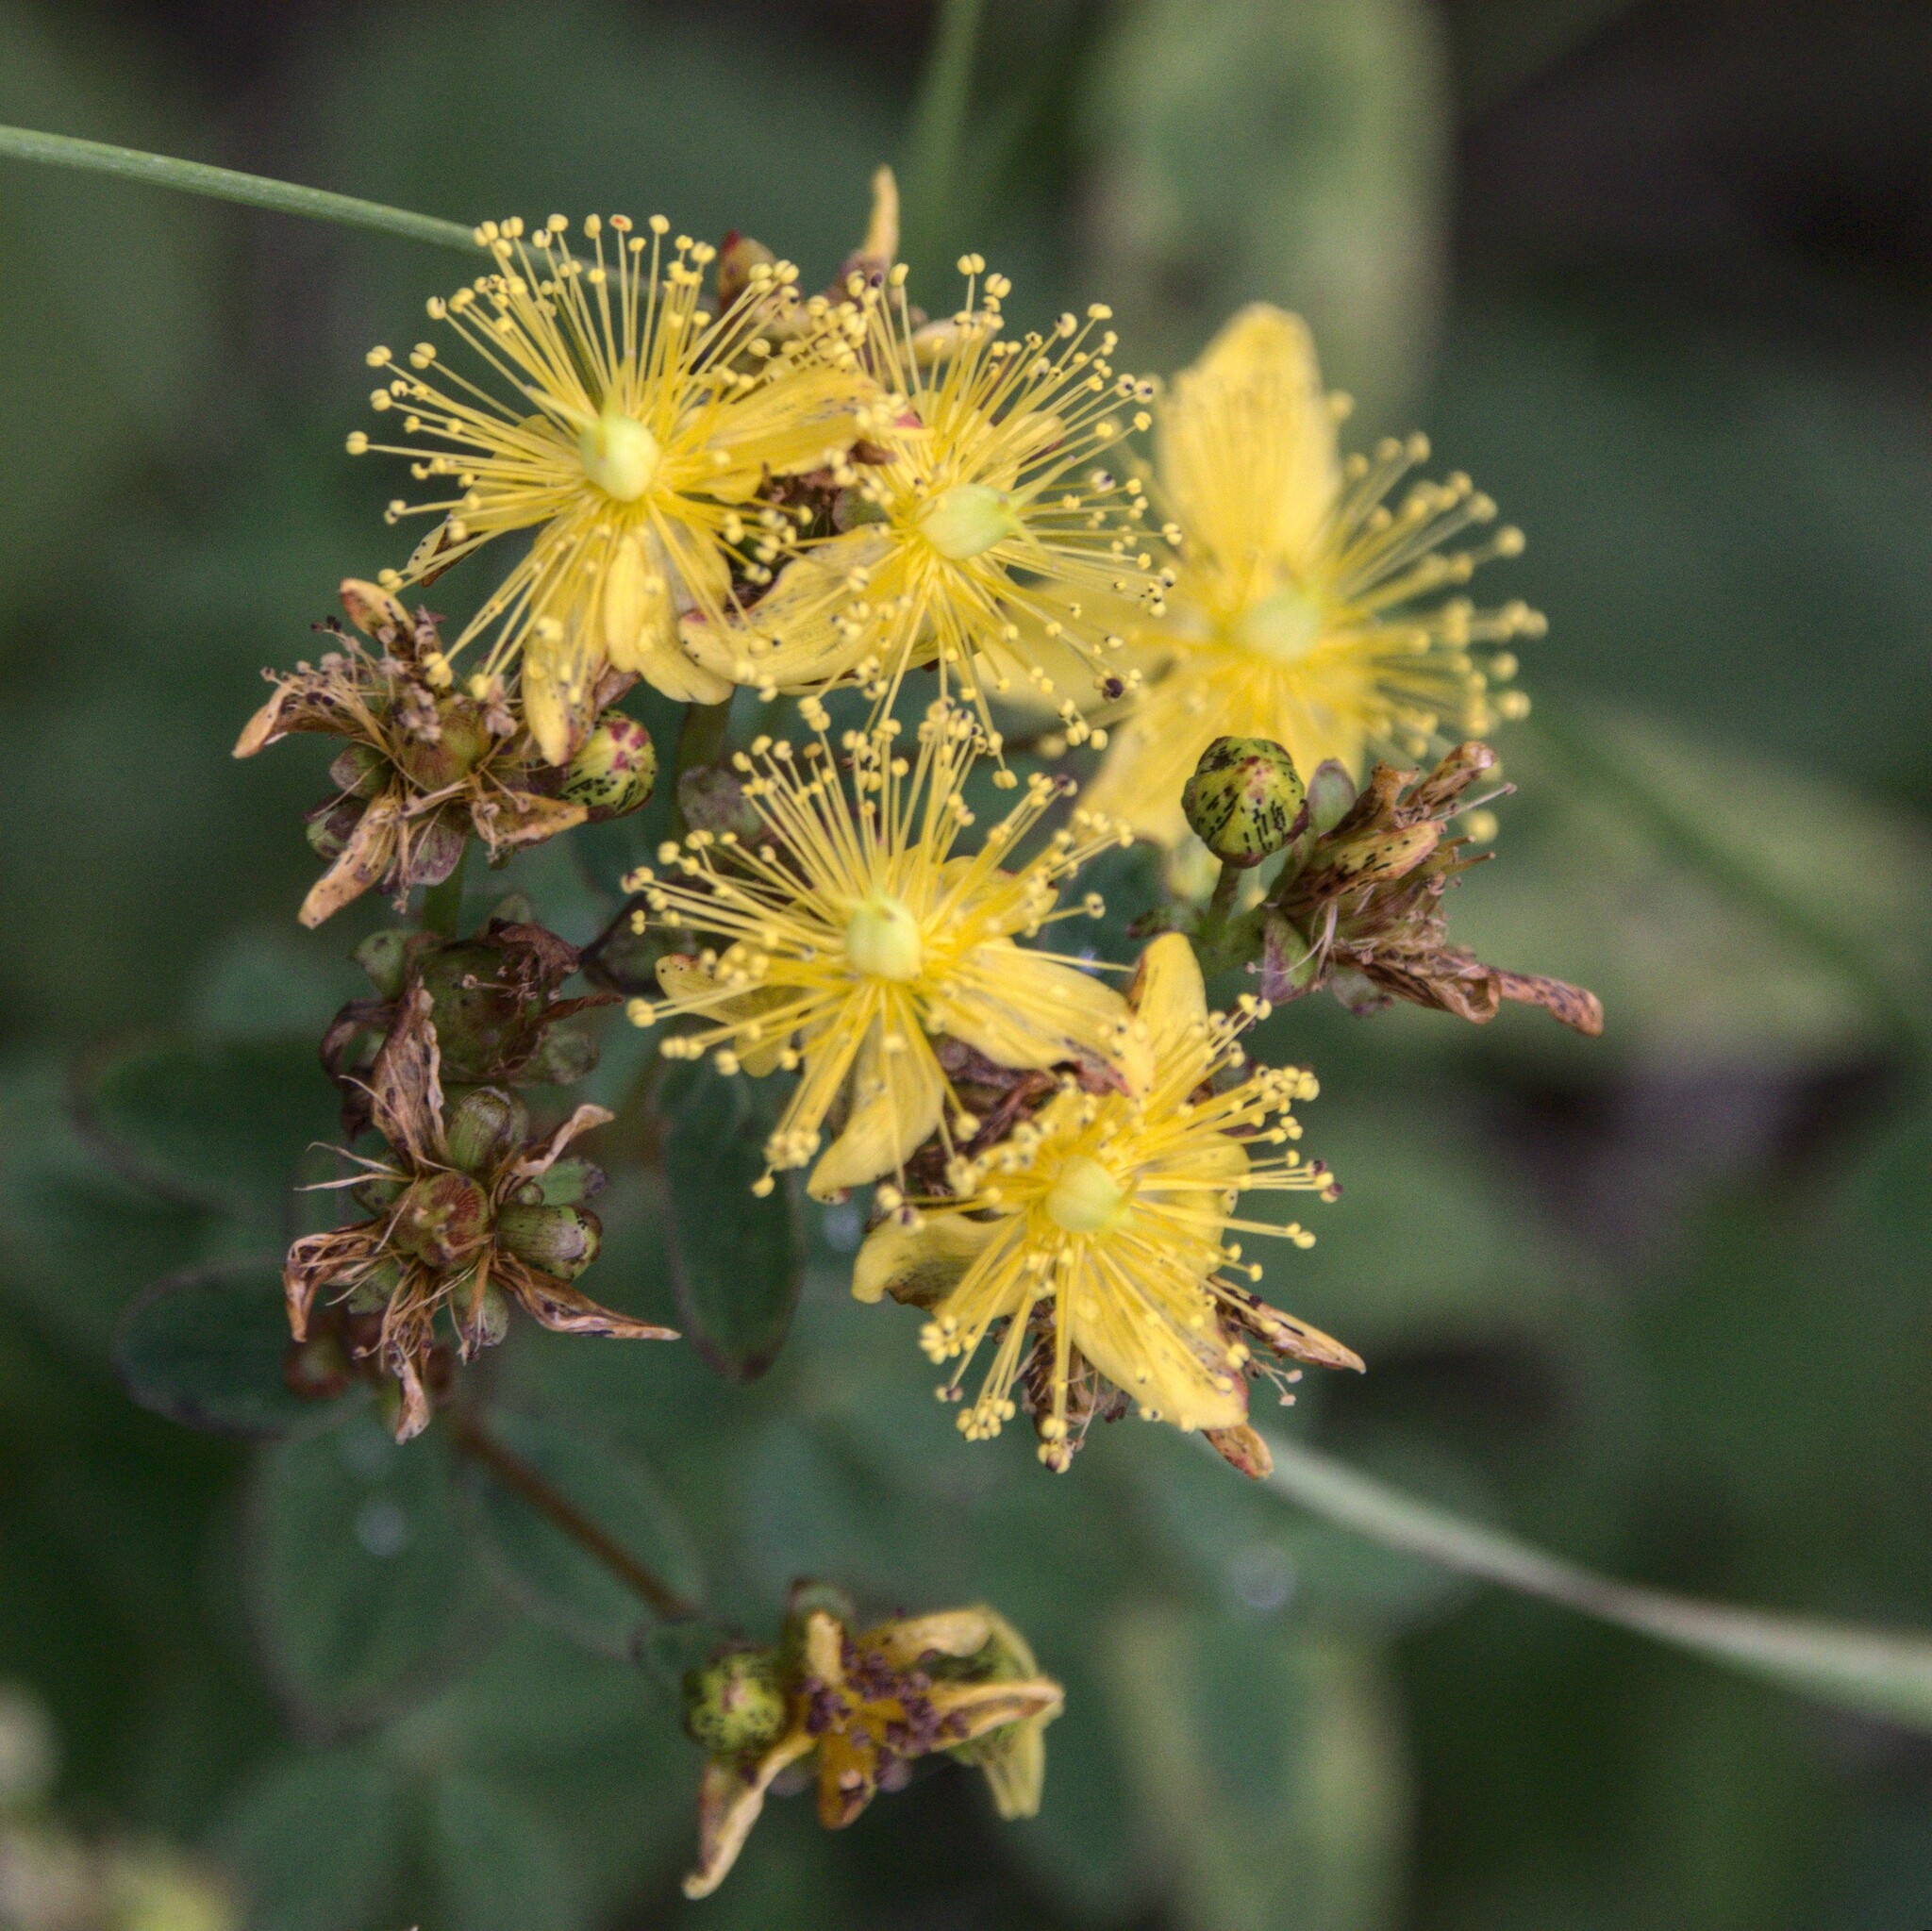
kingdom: Plantae
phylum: Tracheophyta
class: Magnoliopsida
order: Malpighiales
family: Hypericaceae
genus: Hypericum
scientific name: Hypericum maculatum
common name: Imperforate st. john's-wort
